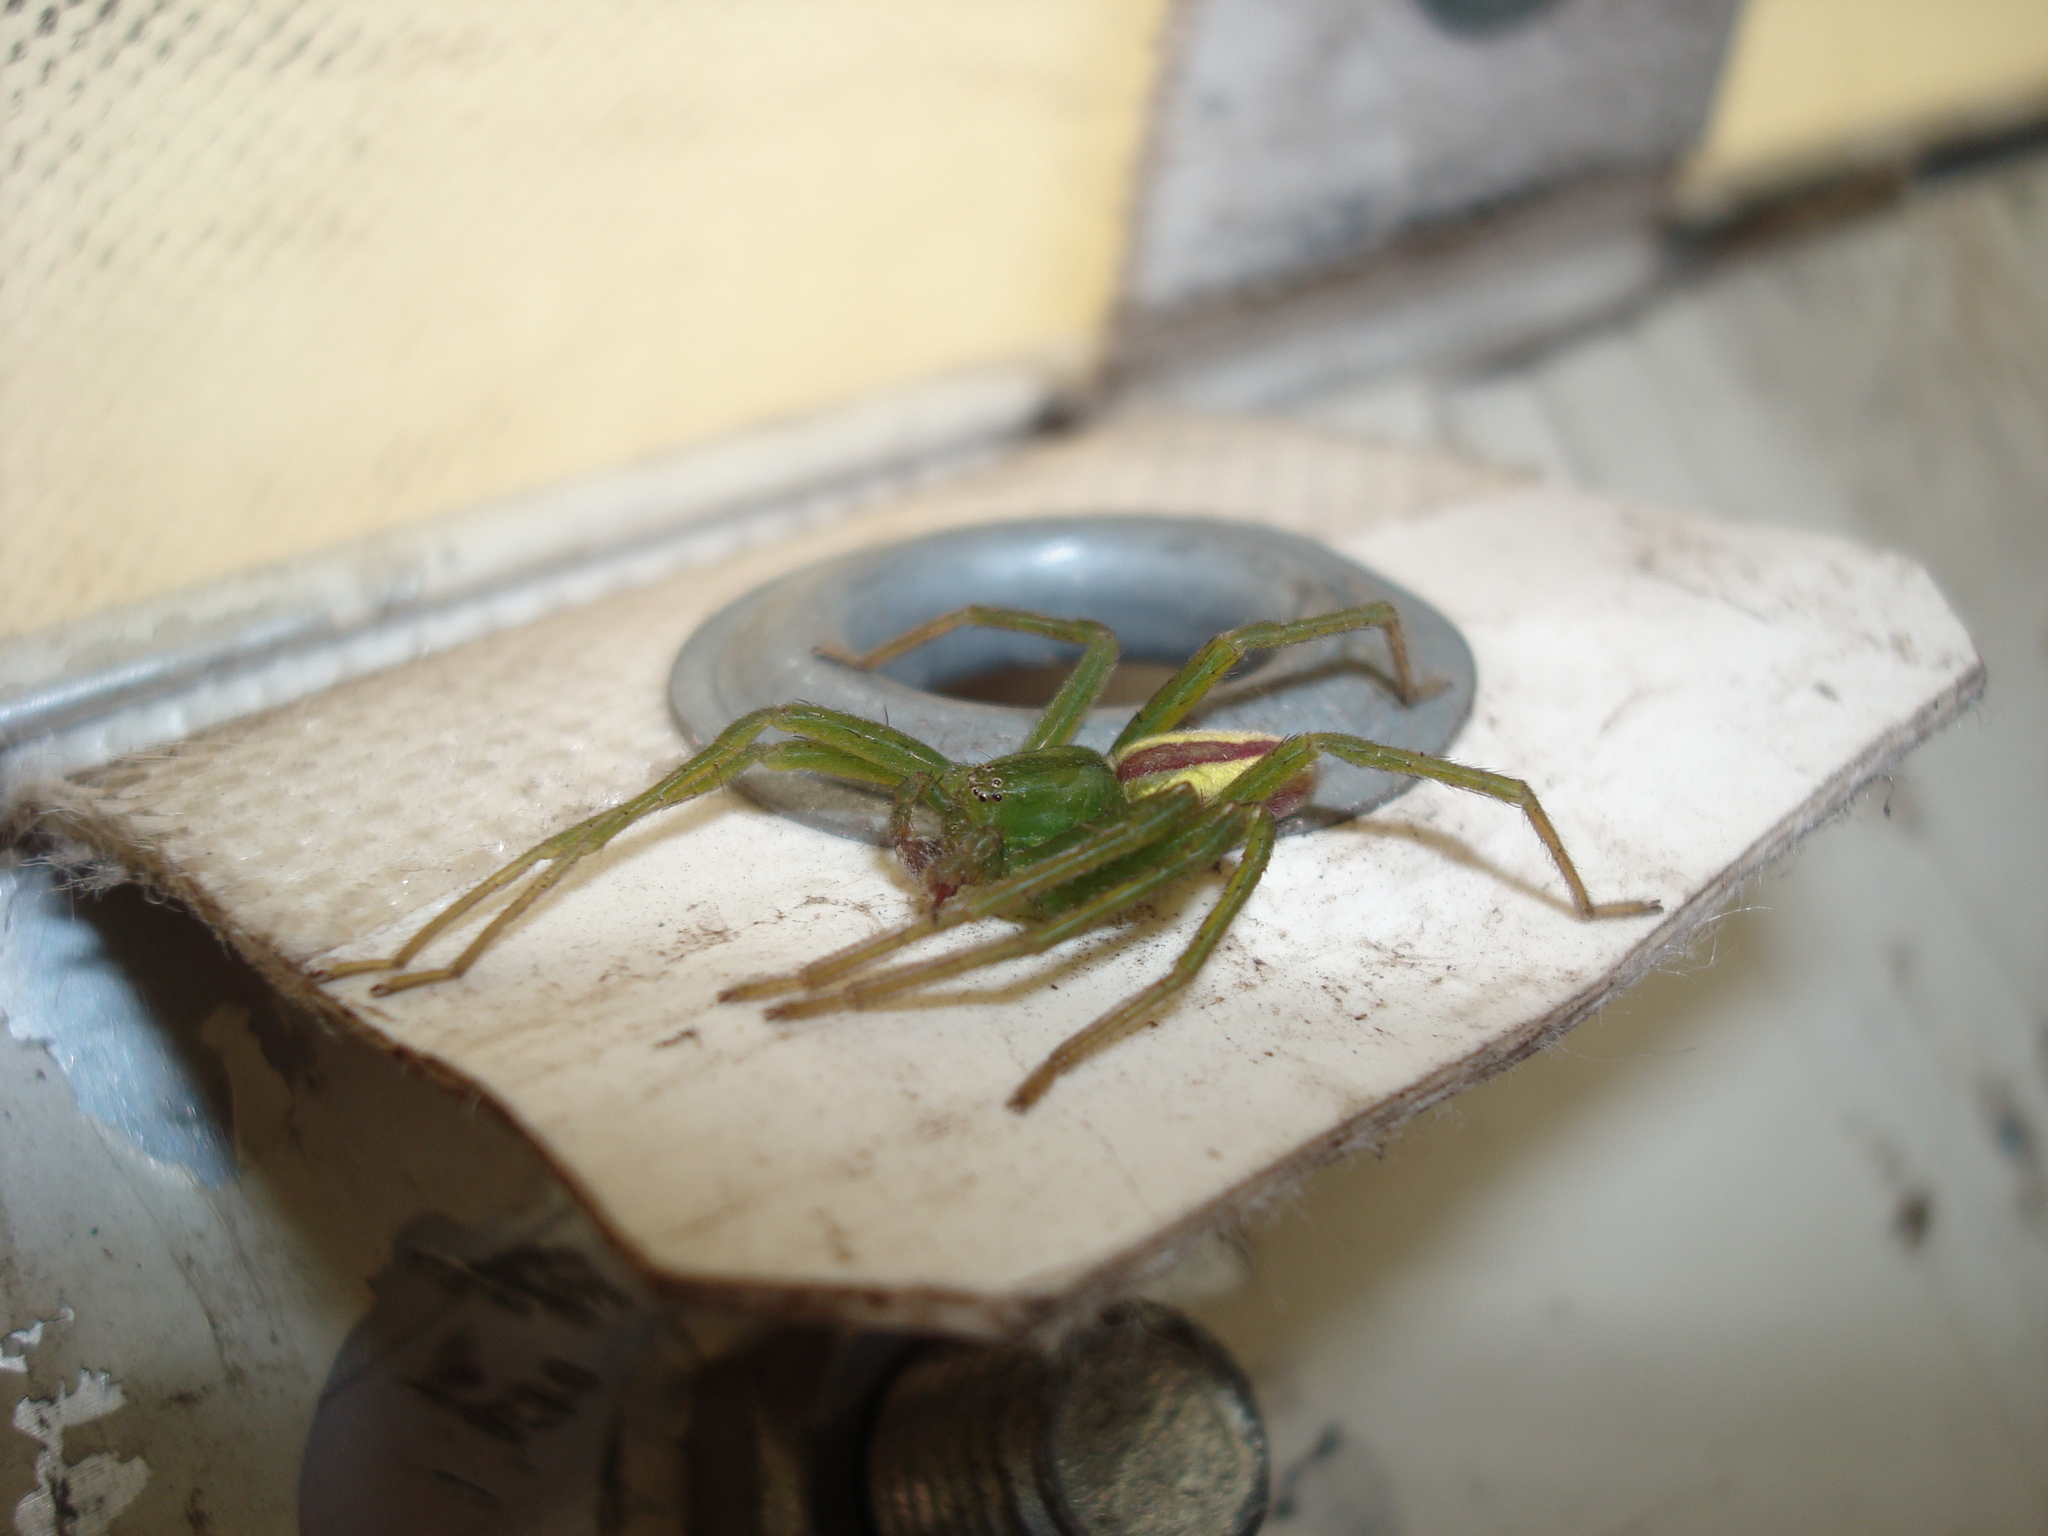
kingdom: Animalia
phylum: Arthropoda
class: Arachnida
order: Araneae
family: Sparassidae
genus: Micrommata
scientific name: Micrommata virescens
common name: Green spider
